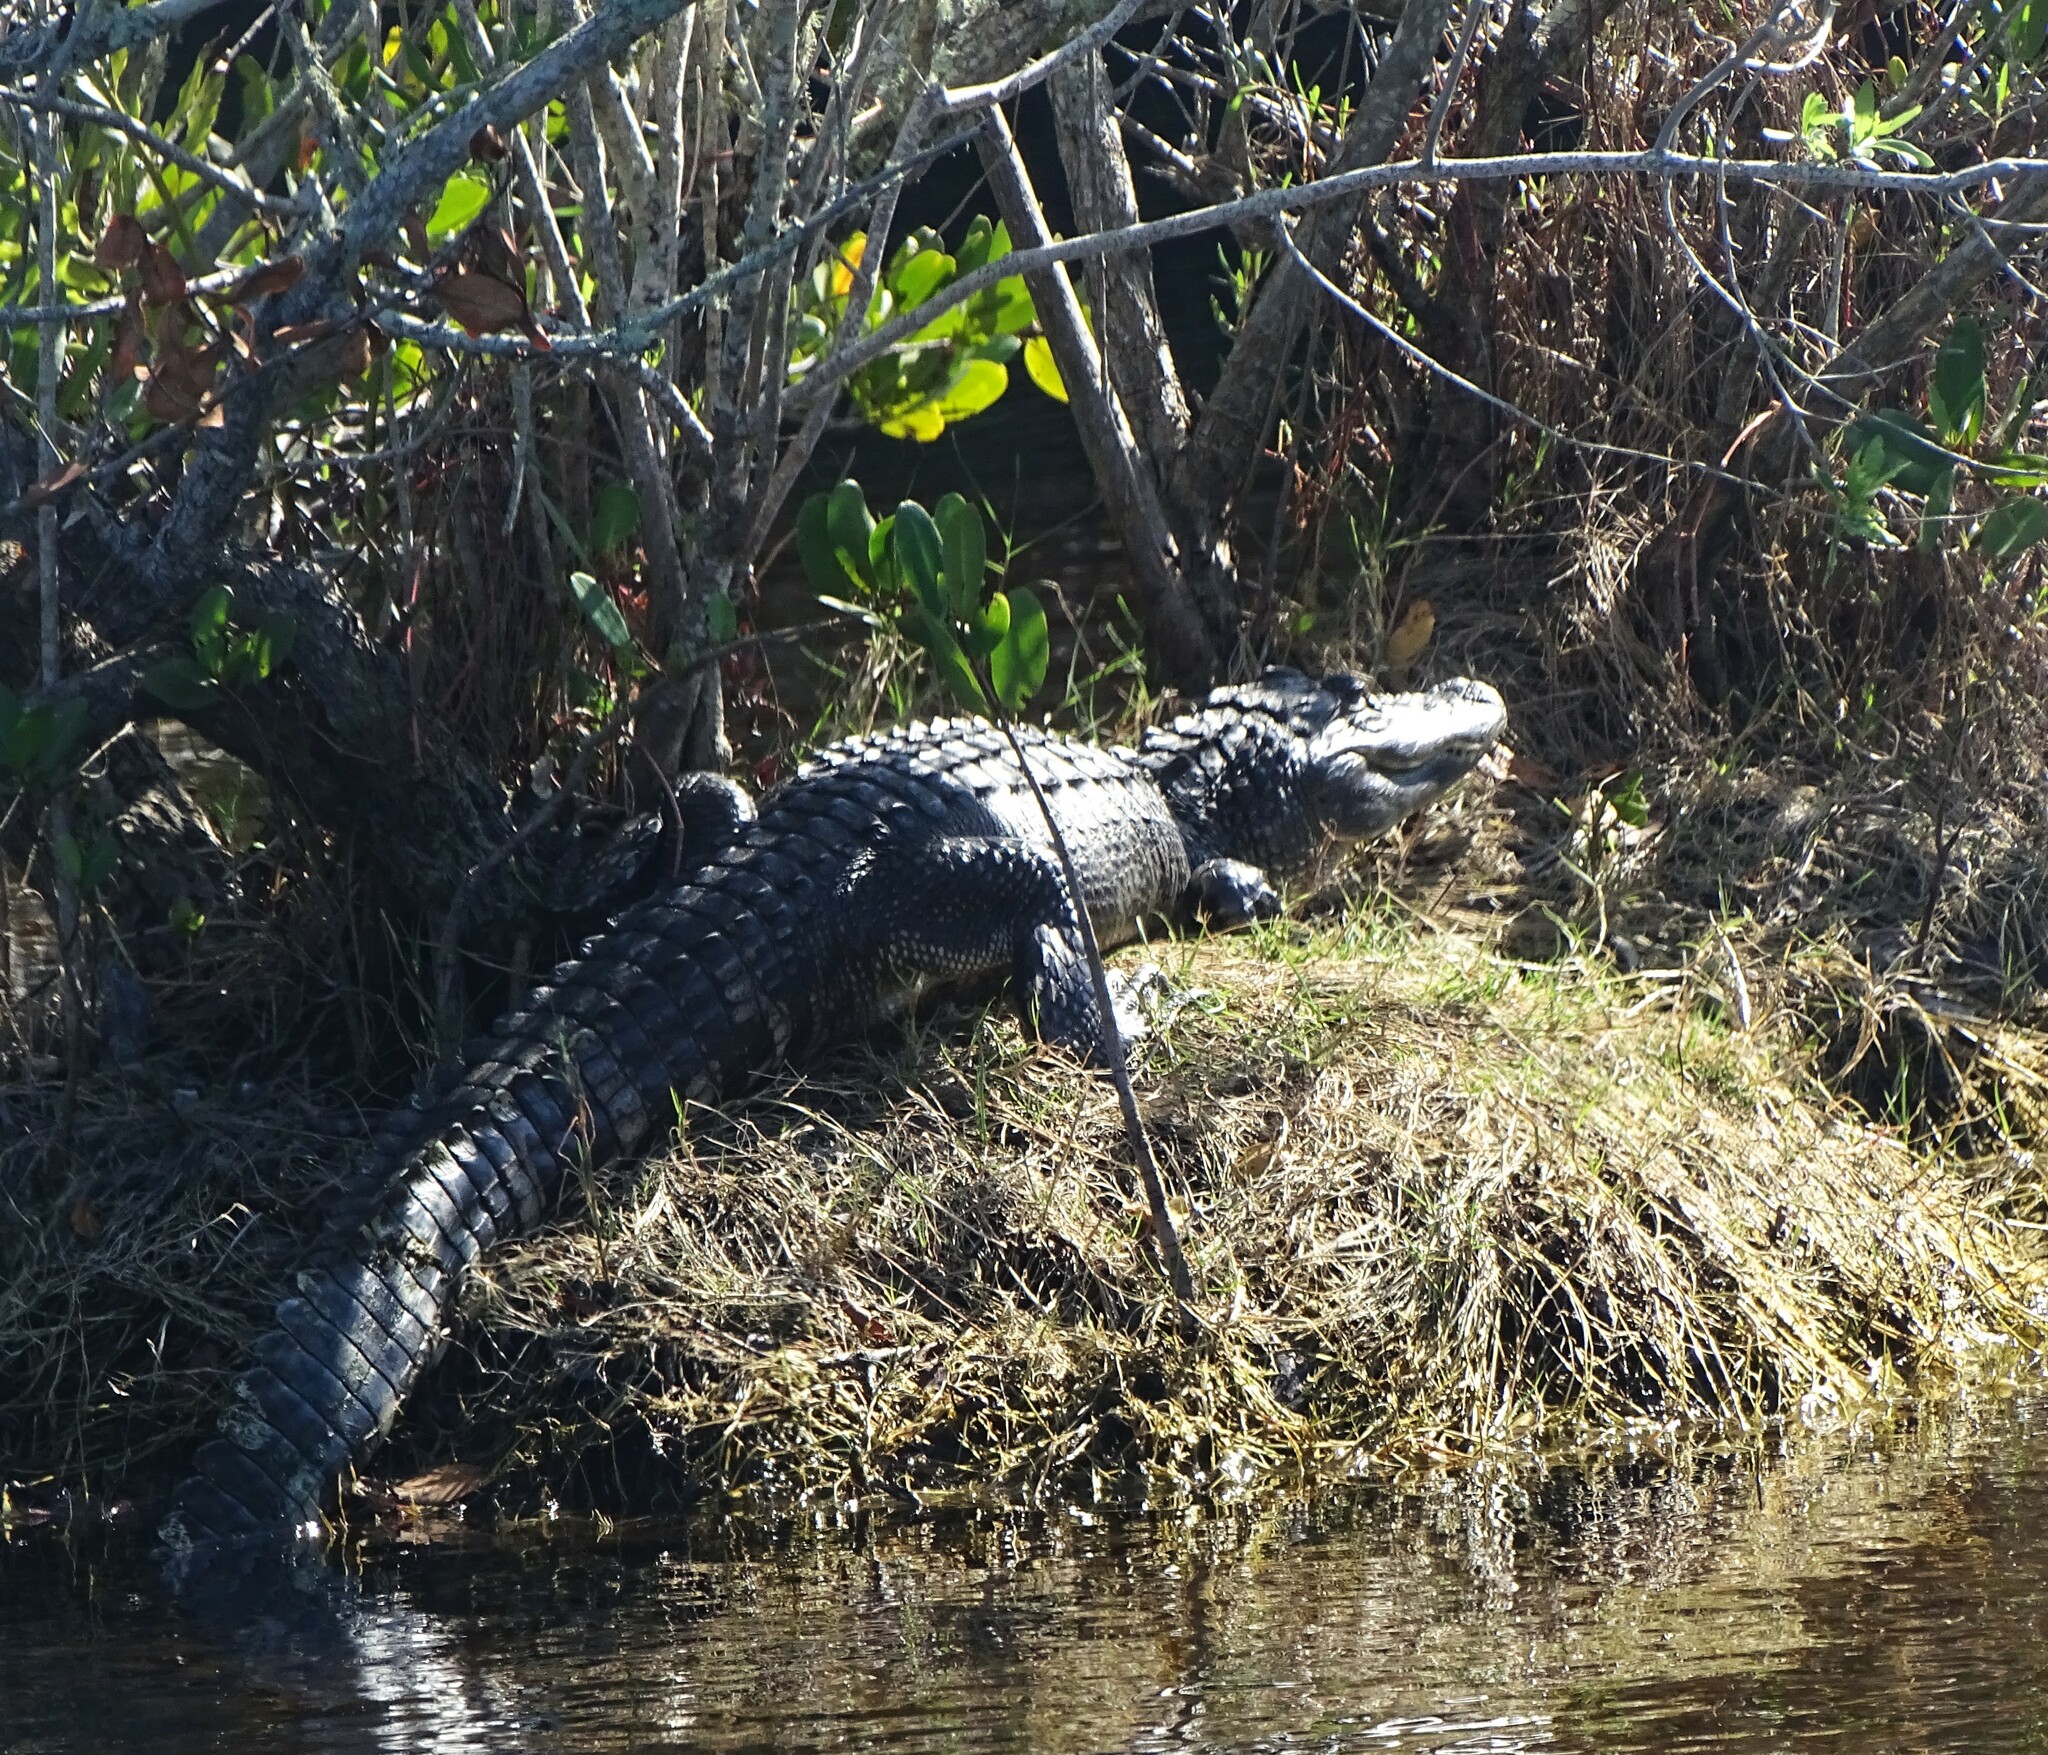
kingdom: Animalia
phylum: Chordata
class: Crocodylia
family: Alligatoridae
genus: Alligator
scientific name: Alligator mississippiensis
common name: American alligator
